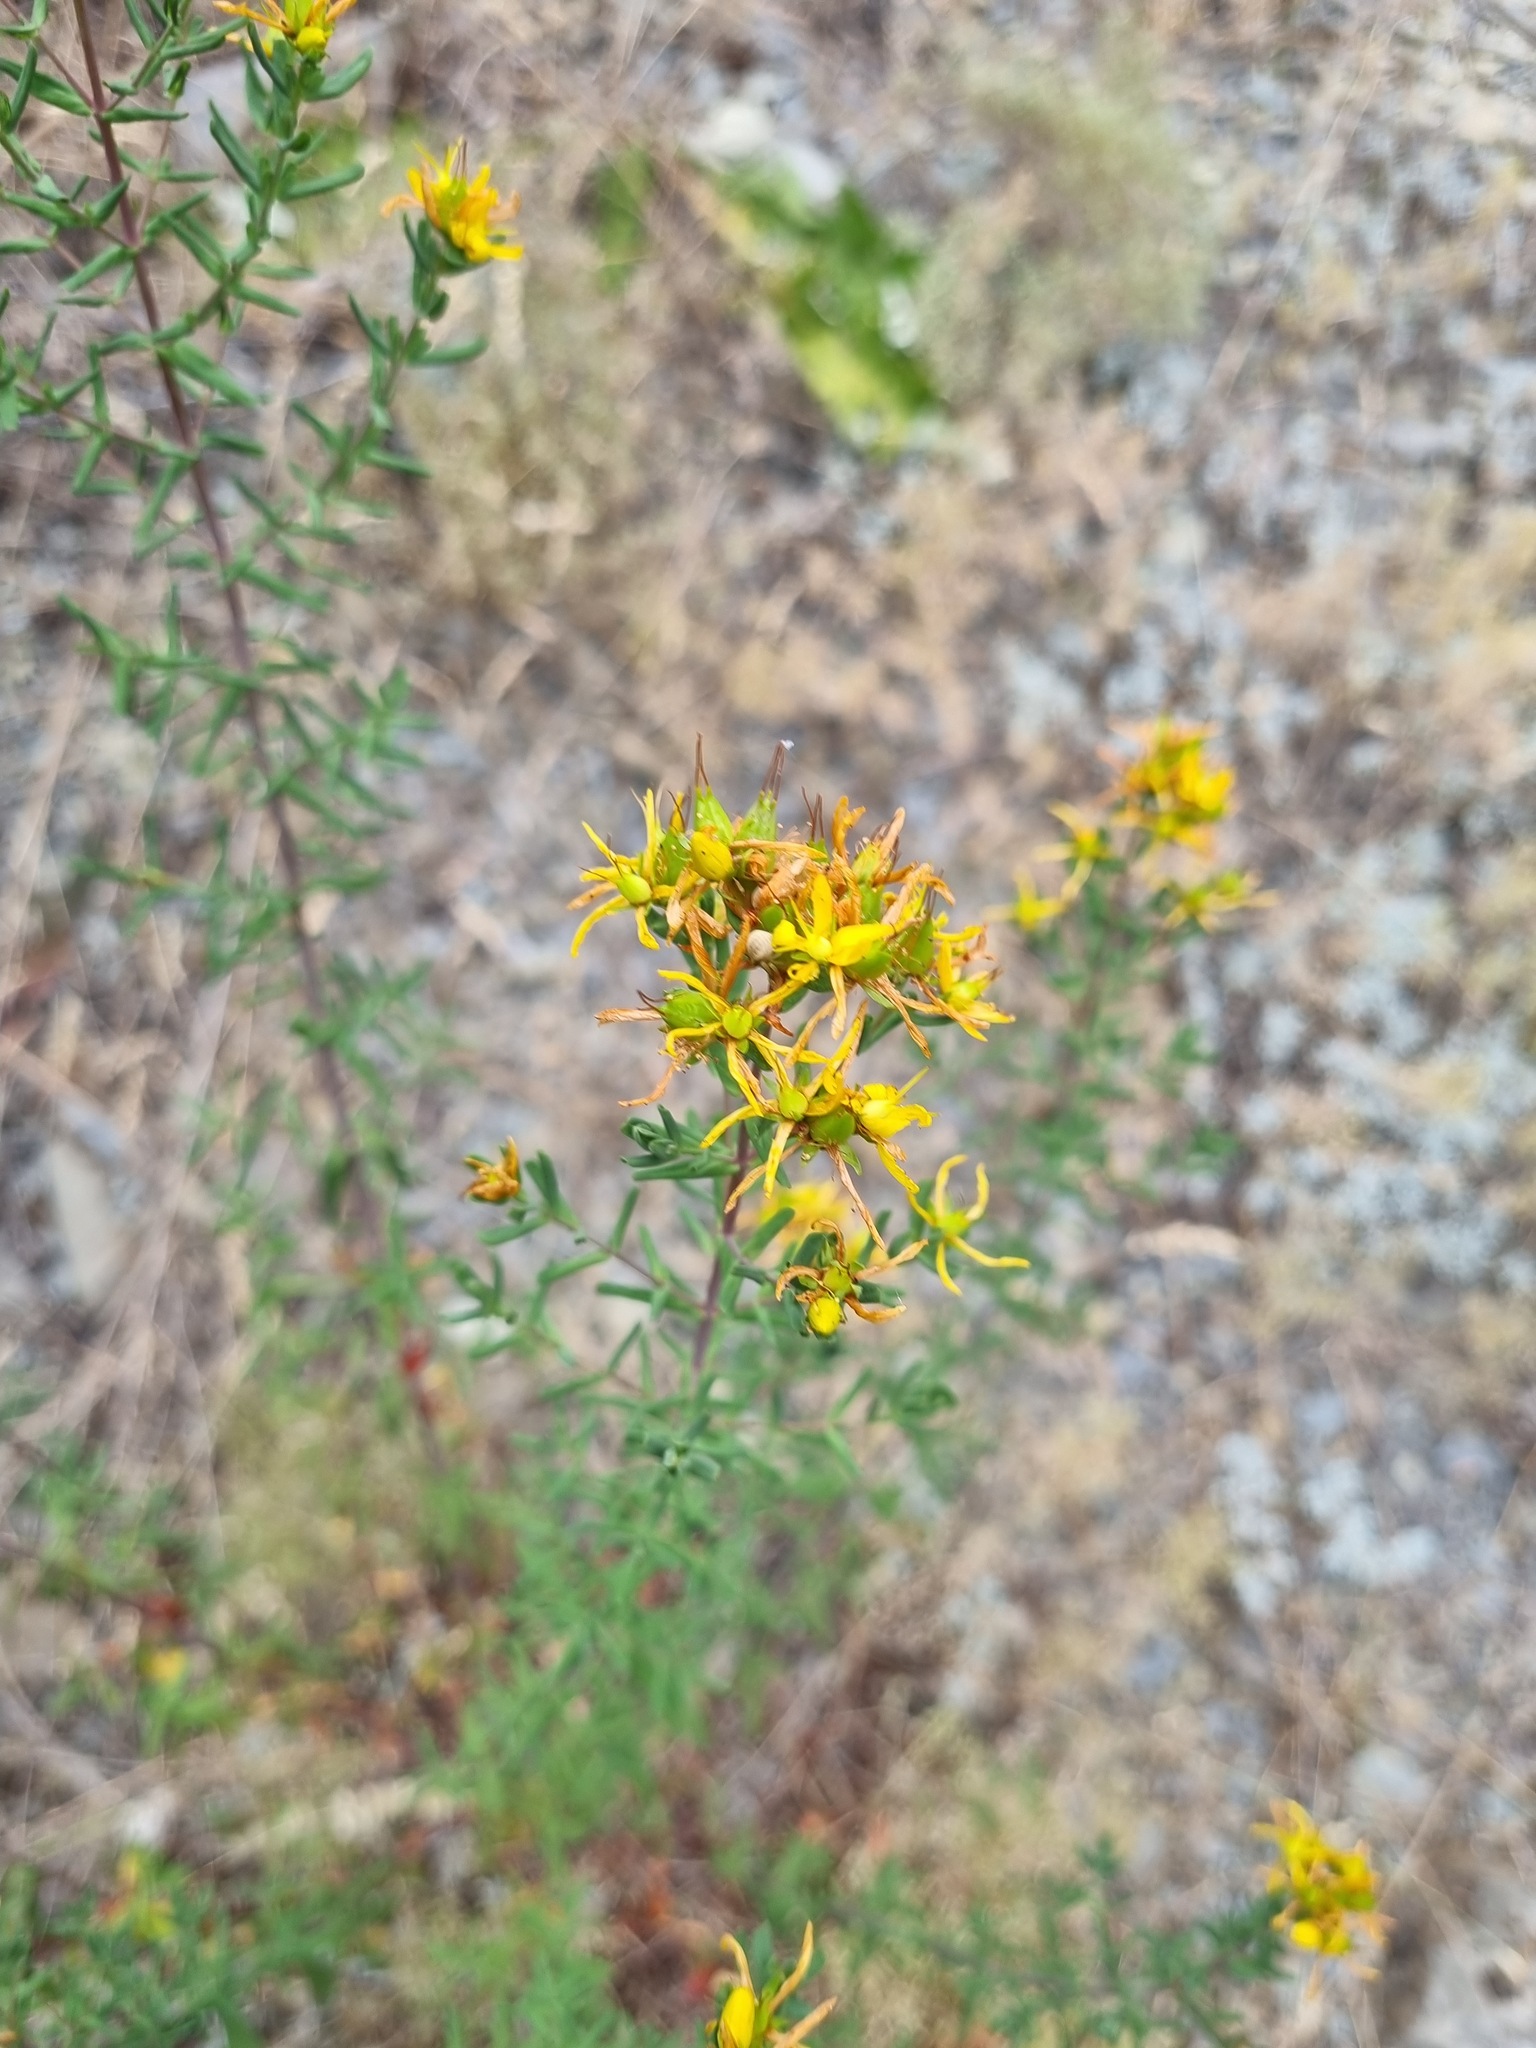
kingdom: Plantae
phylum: Tracheophyta
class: Magnoliopsida
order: Malpighiales
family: Hypericaceae
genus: Hypericum
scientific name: Hypericum perforatum
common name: Common st. johnswort
